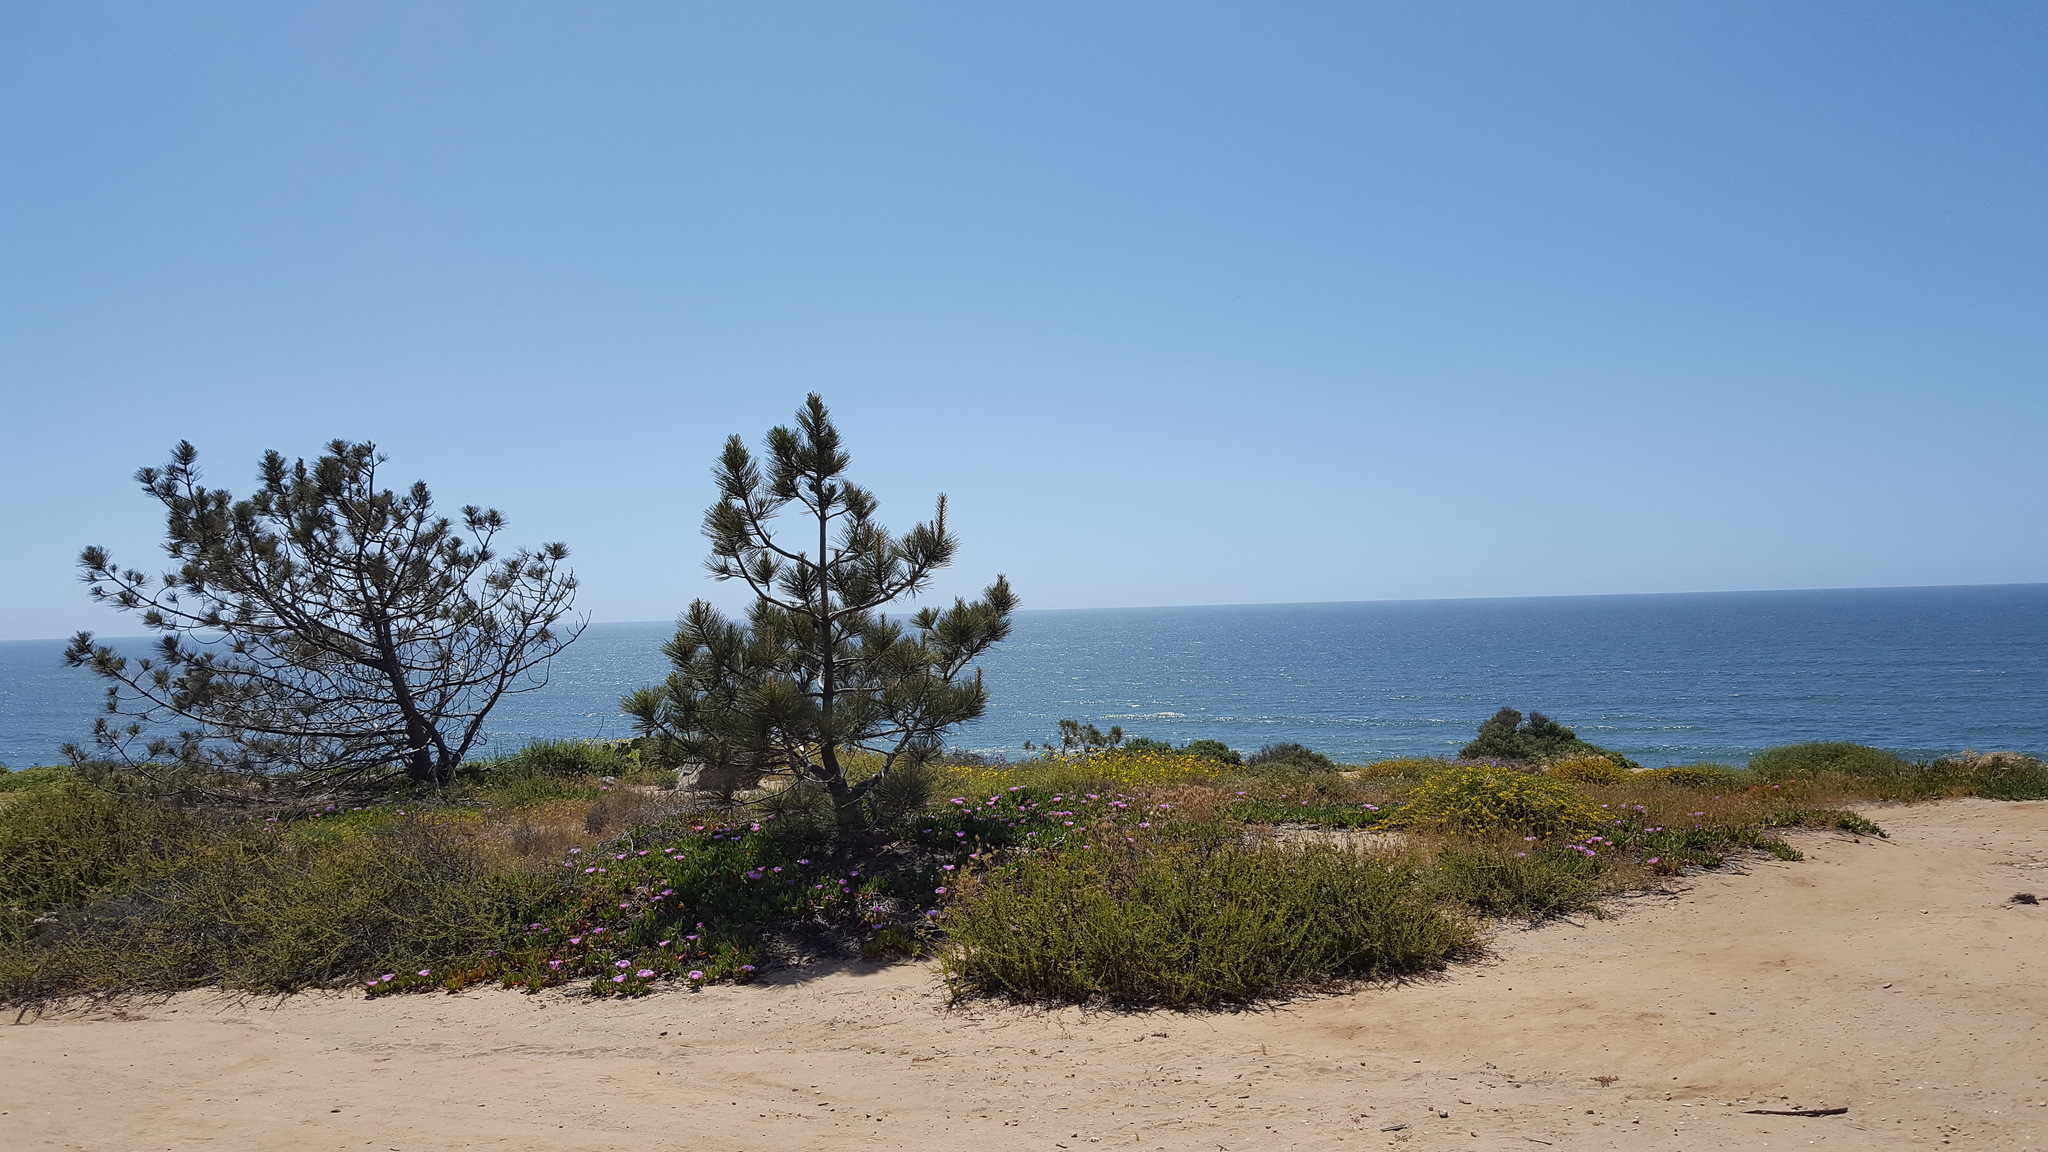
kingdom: Plantae
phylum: Tracheophyta
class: Pinopsida
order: Pinales
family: Pinaceae
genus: Pinus
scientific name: Pinus torreyana
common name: Torrey pine
